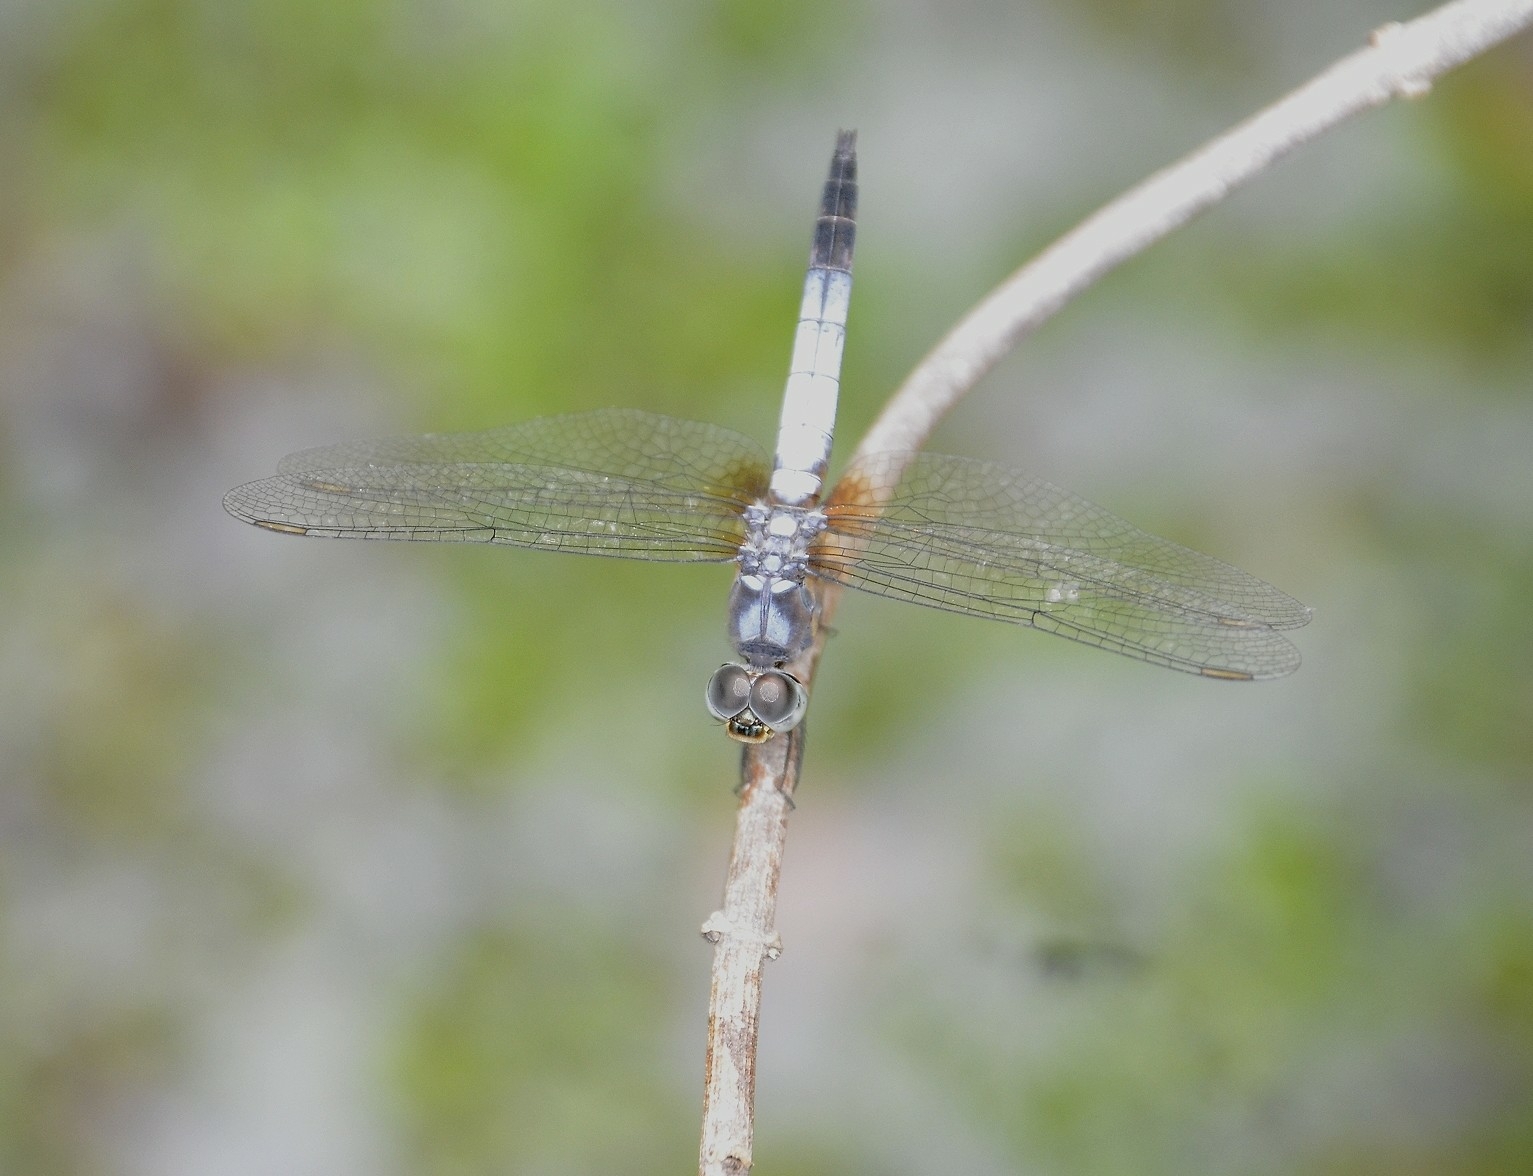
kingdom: Animalia
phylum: Arthropoda
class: Insecta
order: Odonata
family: Libellulidae
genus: Brachydiplax
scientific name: Brachydiplax chalybea
